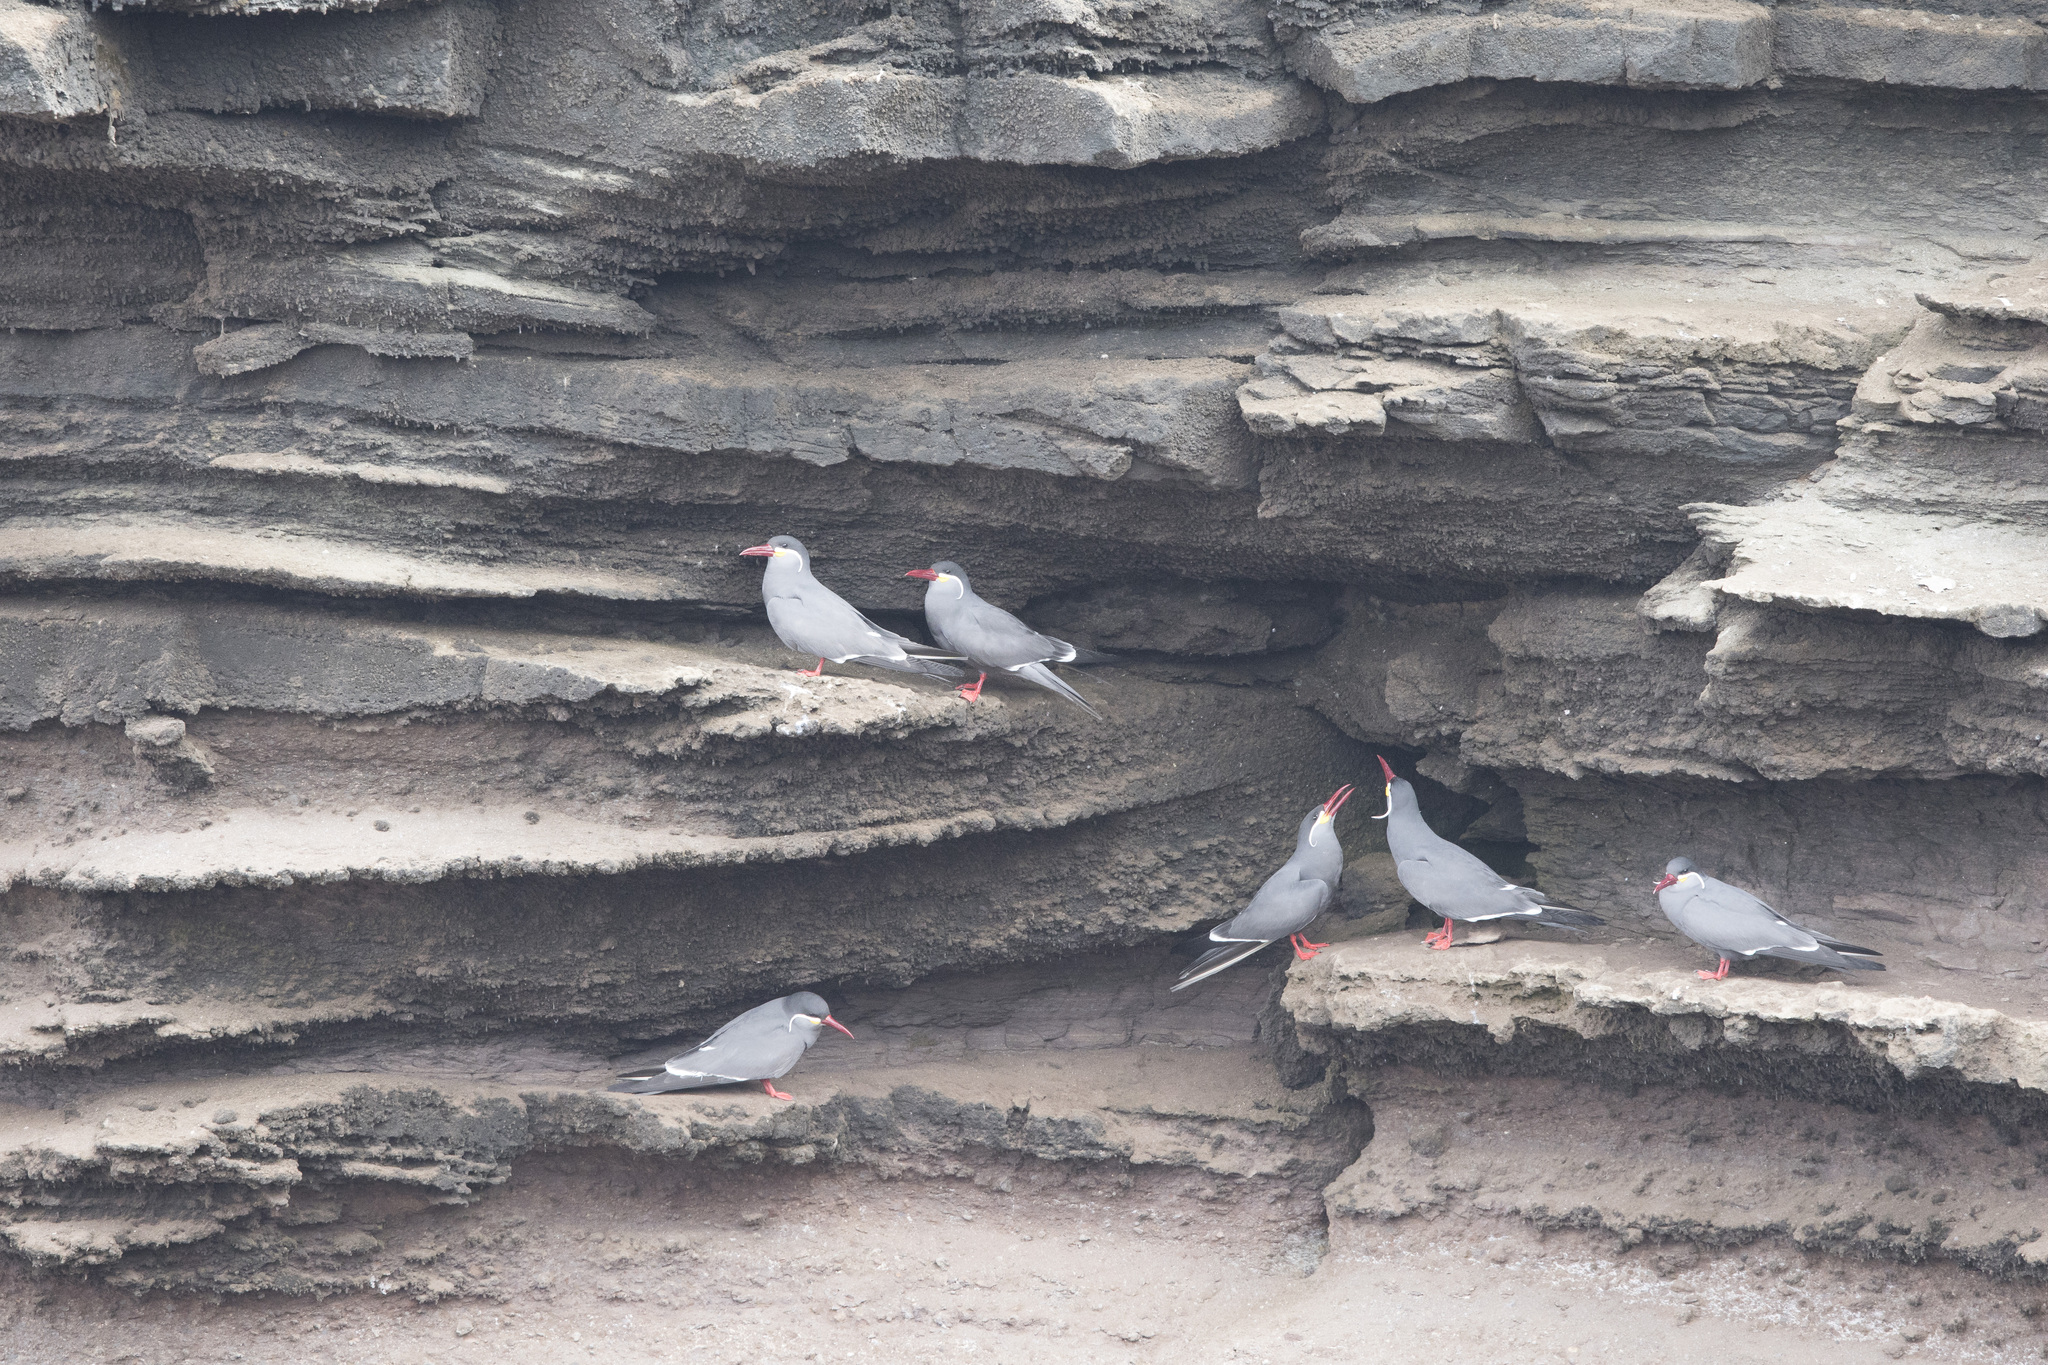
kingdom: Animalia
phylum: Chordata
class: Aves
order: Charadriiformes
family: Laridae
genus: Larosterna
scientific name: Larosterna inca
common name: Inca tern
